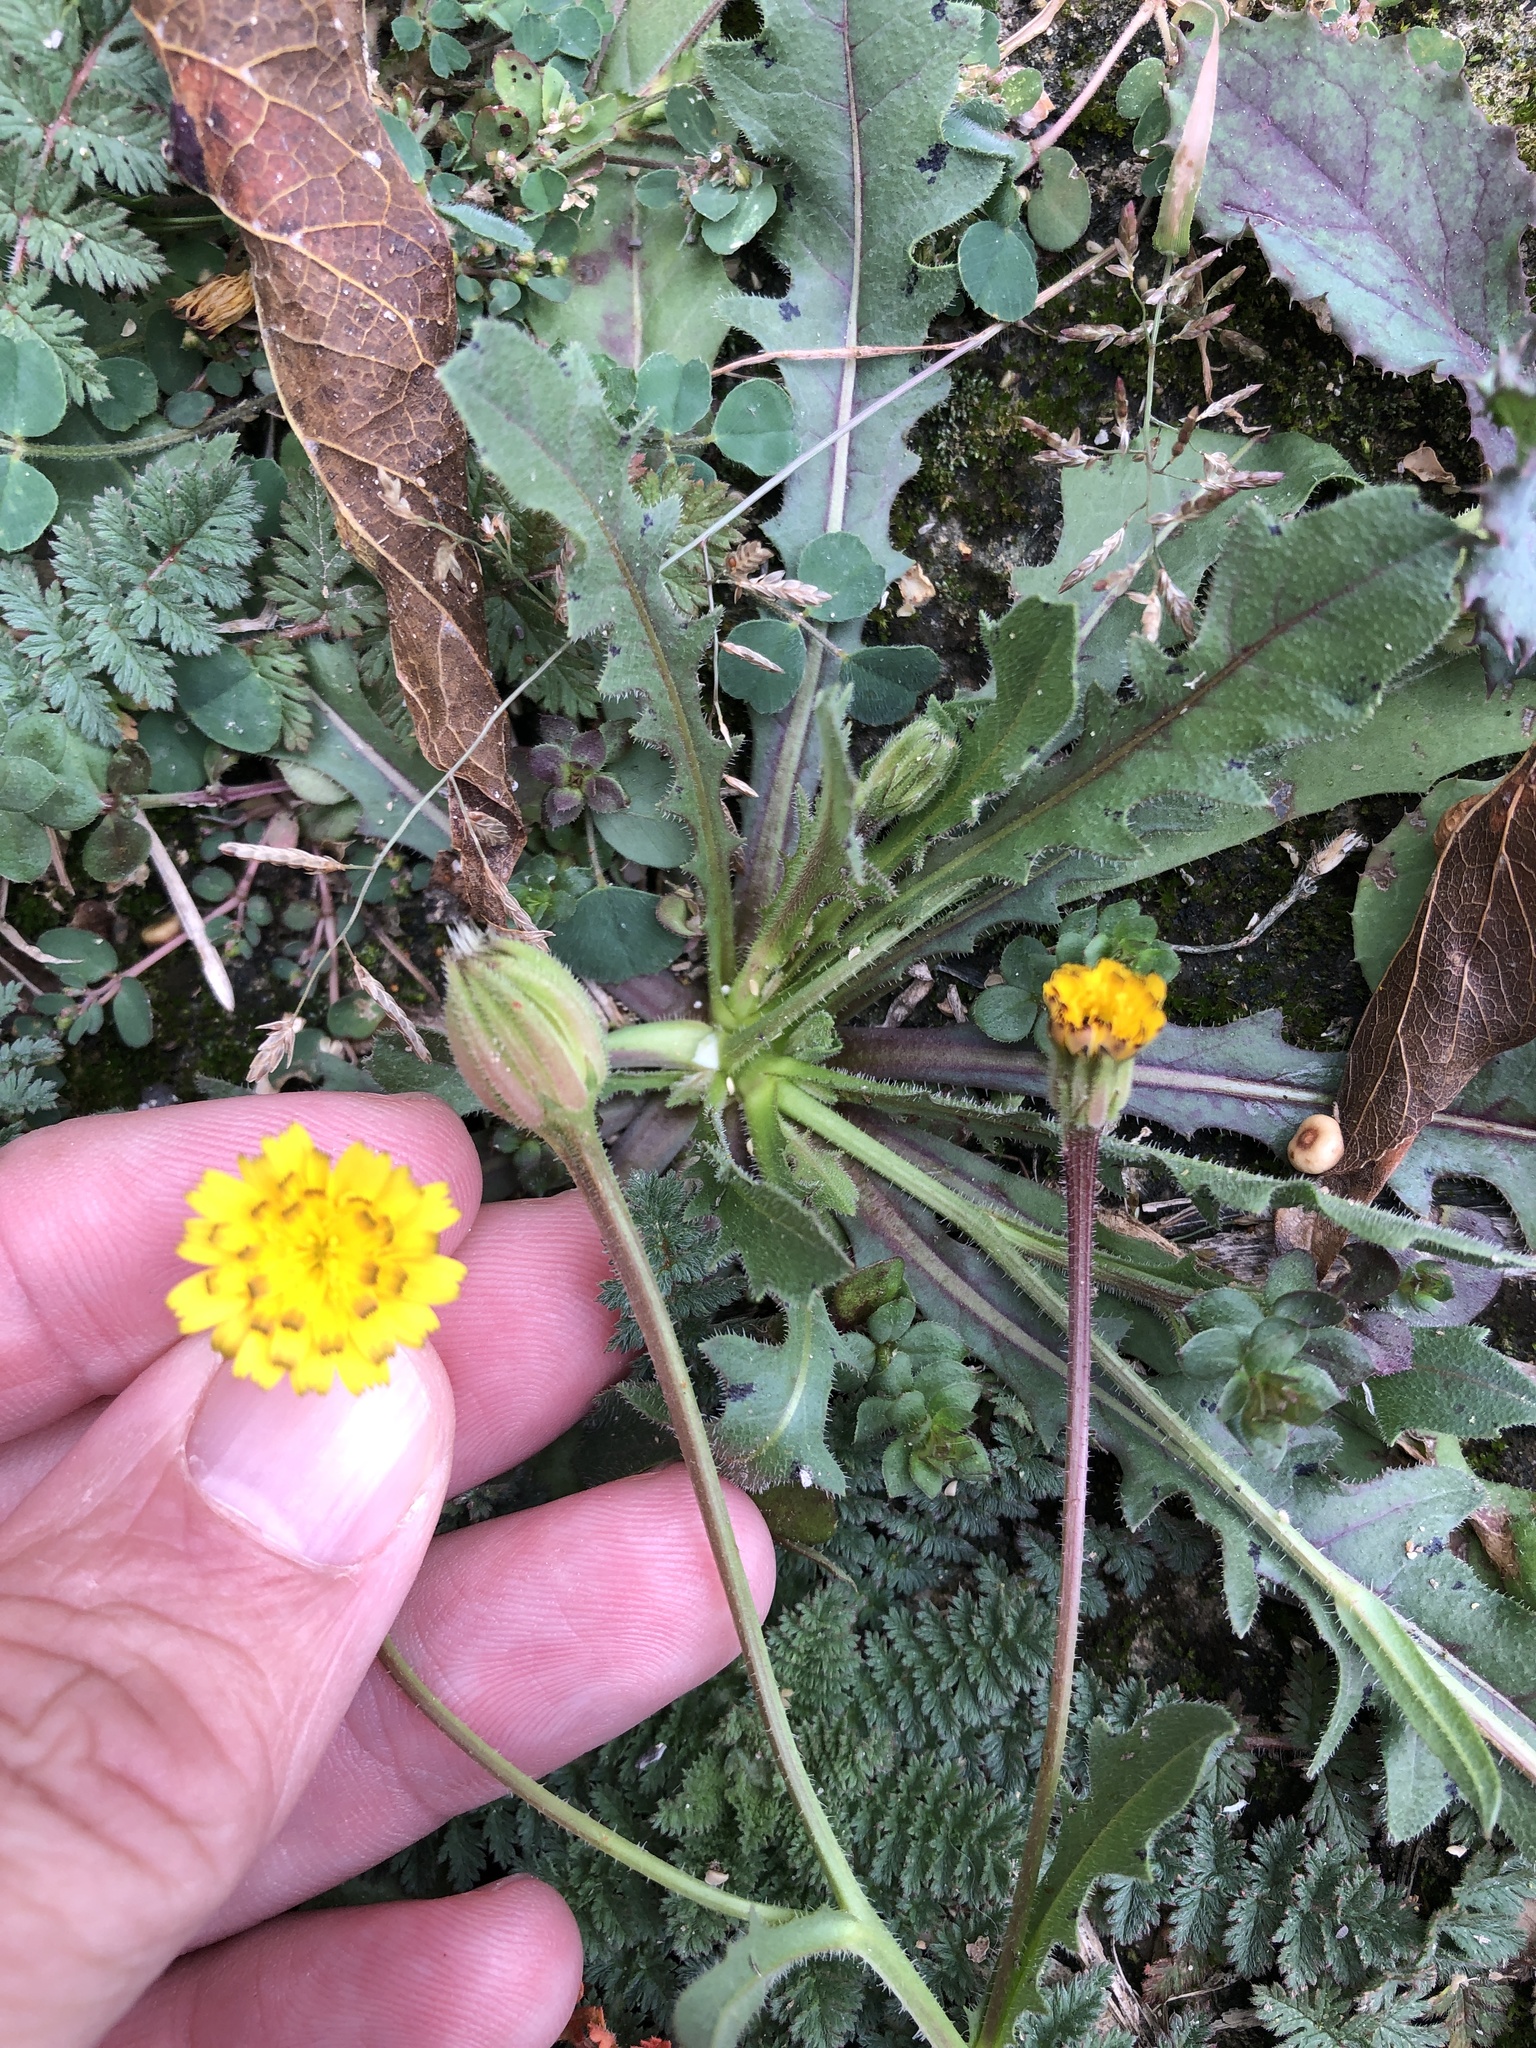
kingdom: Plantae
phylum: Tracheophyta
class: Magnoliopsida
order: Asterales
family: Asteraceae
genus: Hedypnois
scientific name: Hedypnois rhagadioloides
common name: Cretan weed
